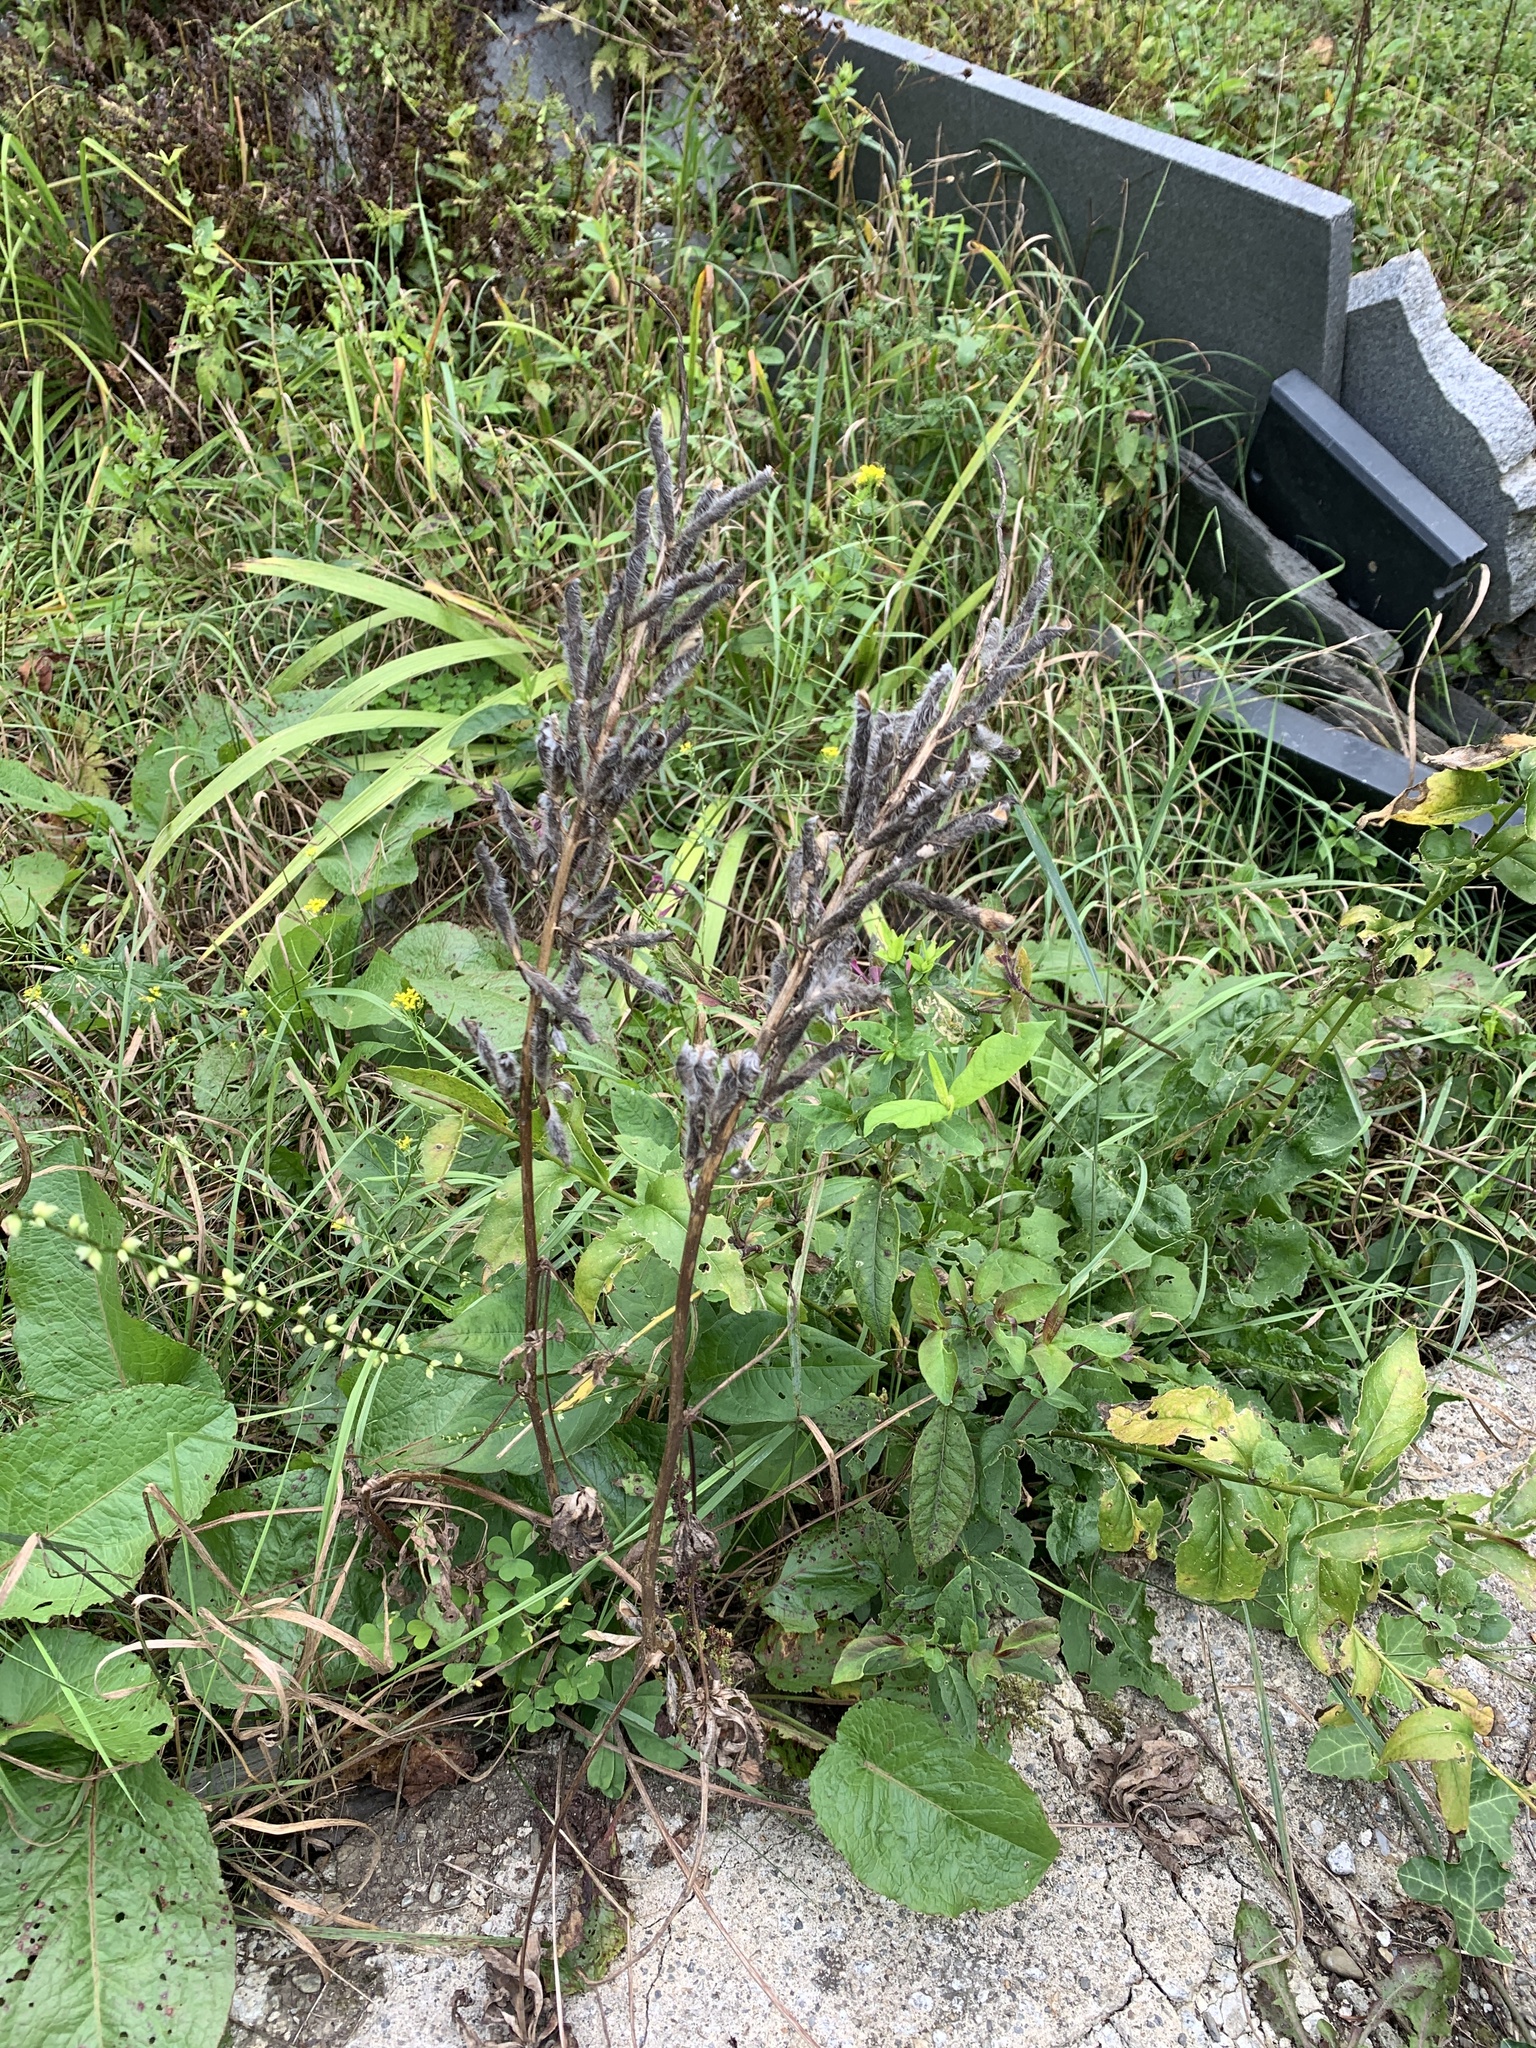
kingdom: Plantae
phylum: Tracheophyta
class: Magnoliopsida
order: Fabales
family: Fabaceae
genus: Lupinus
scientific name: Lupinus polyphyllus
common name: Garden lupin
